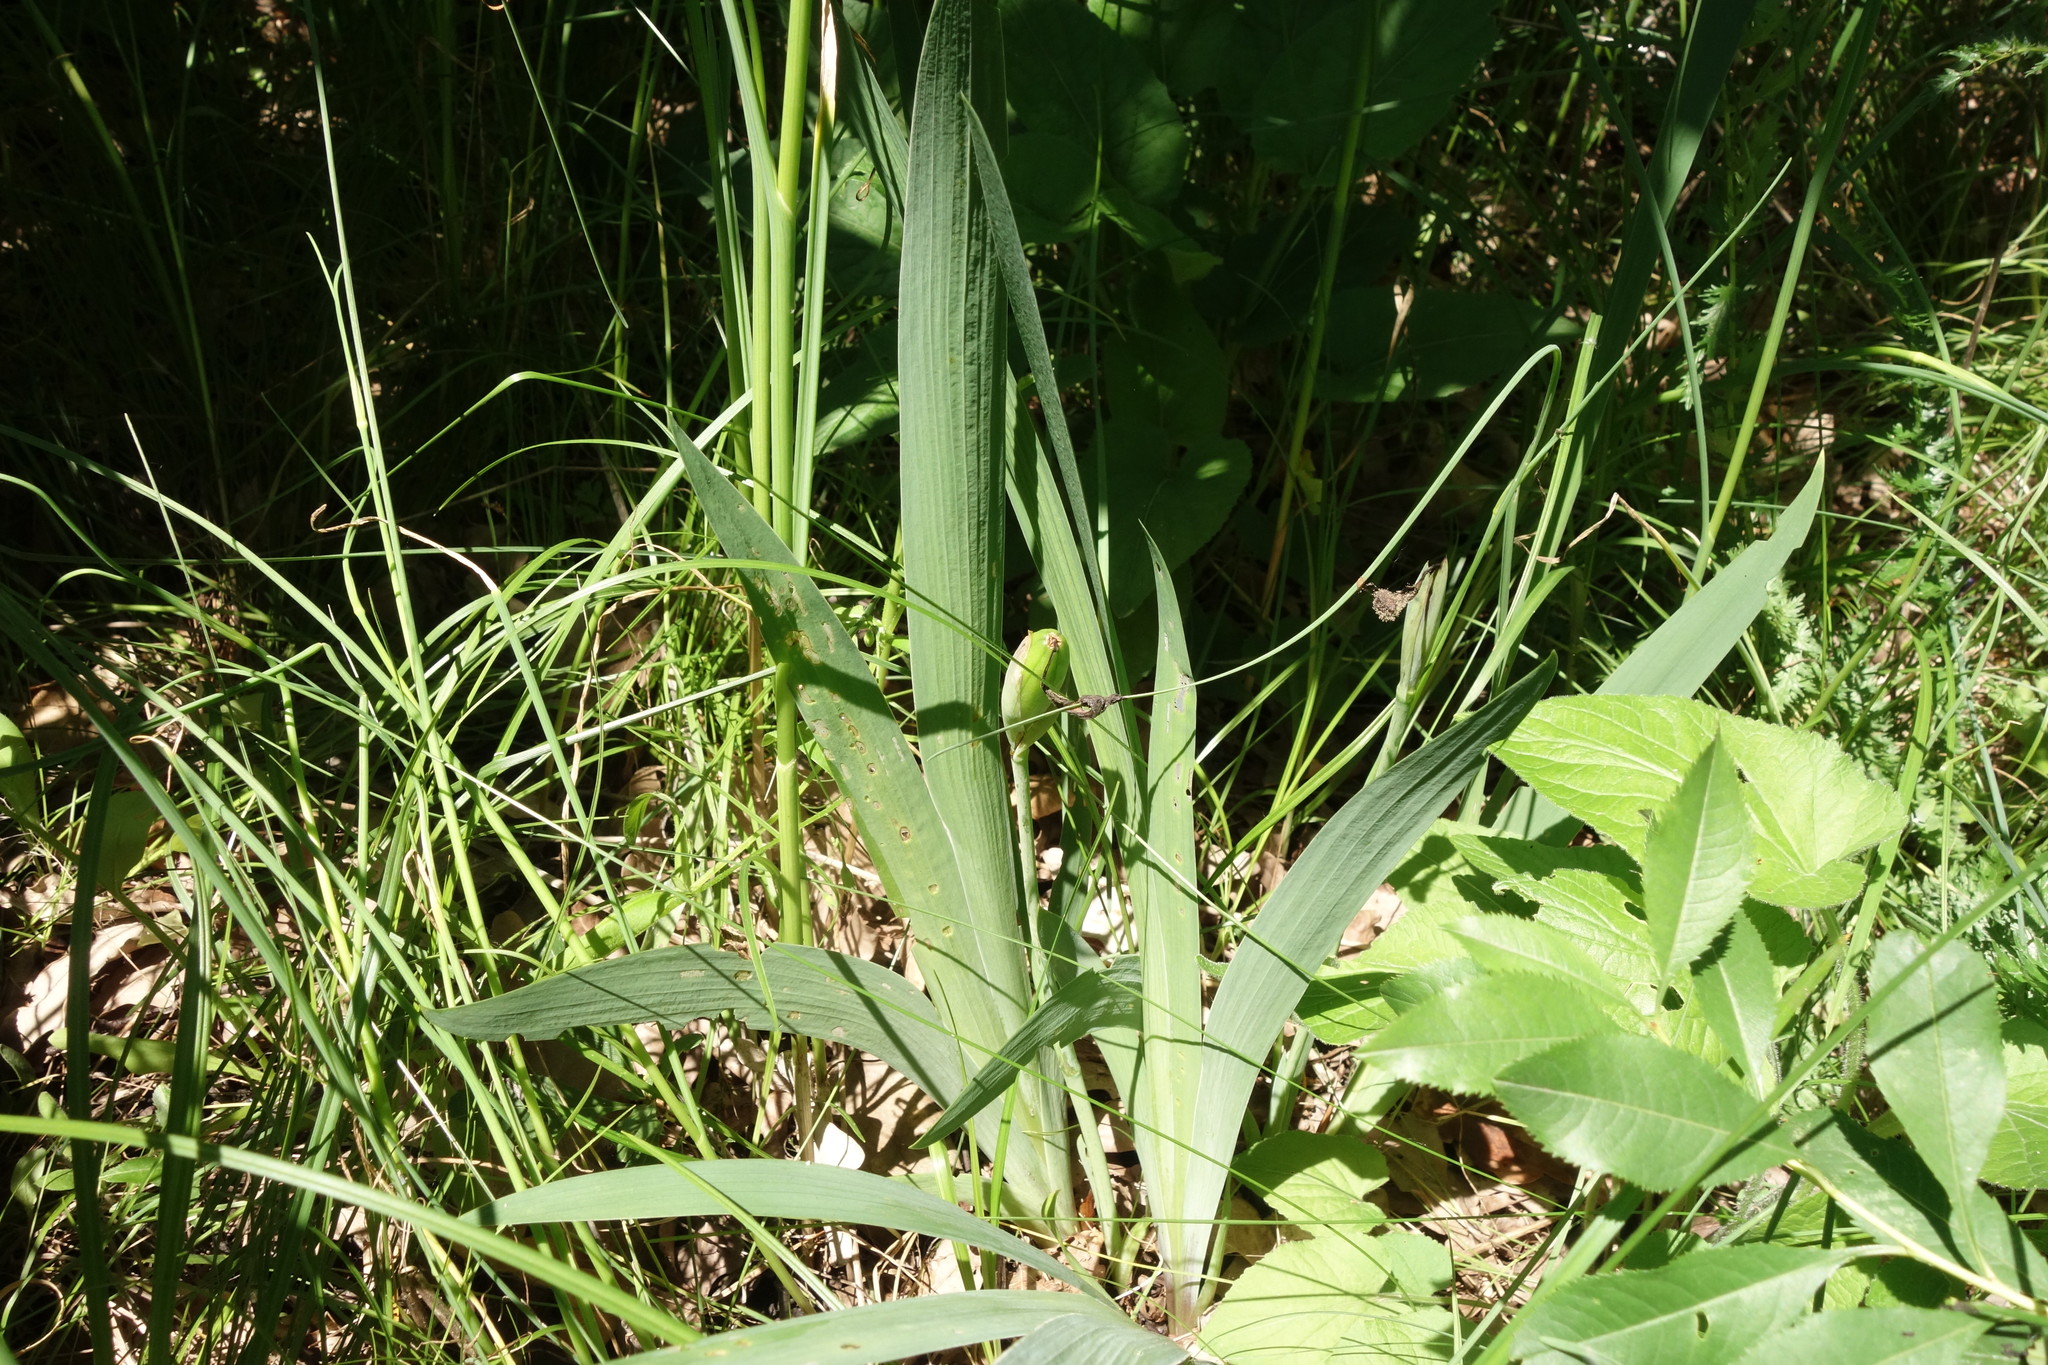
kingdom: Plantae
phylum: Tracheophyta
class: Liliopsida
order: Asparagales
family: Iridaceae
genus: Iris
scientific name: Iris aphylla
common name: Stool iris
